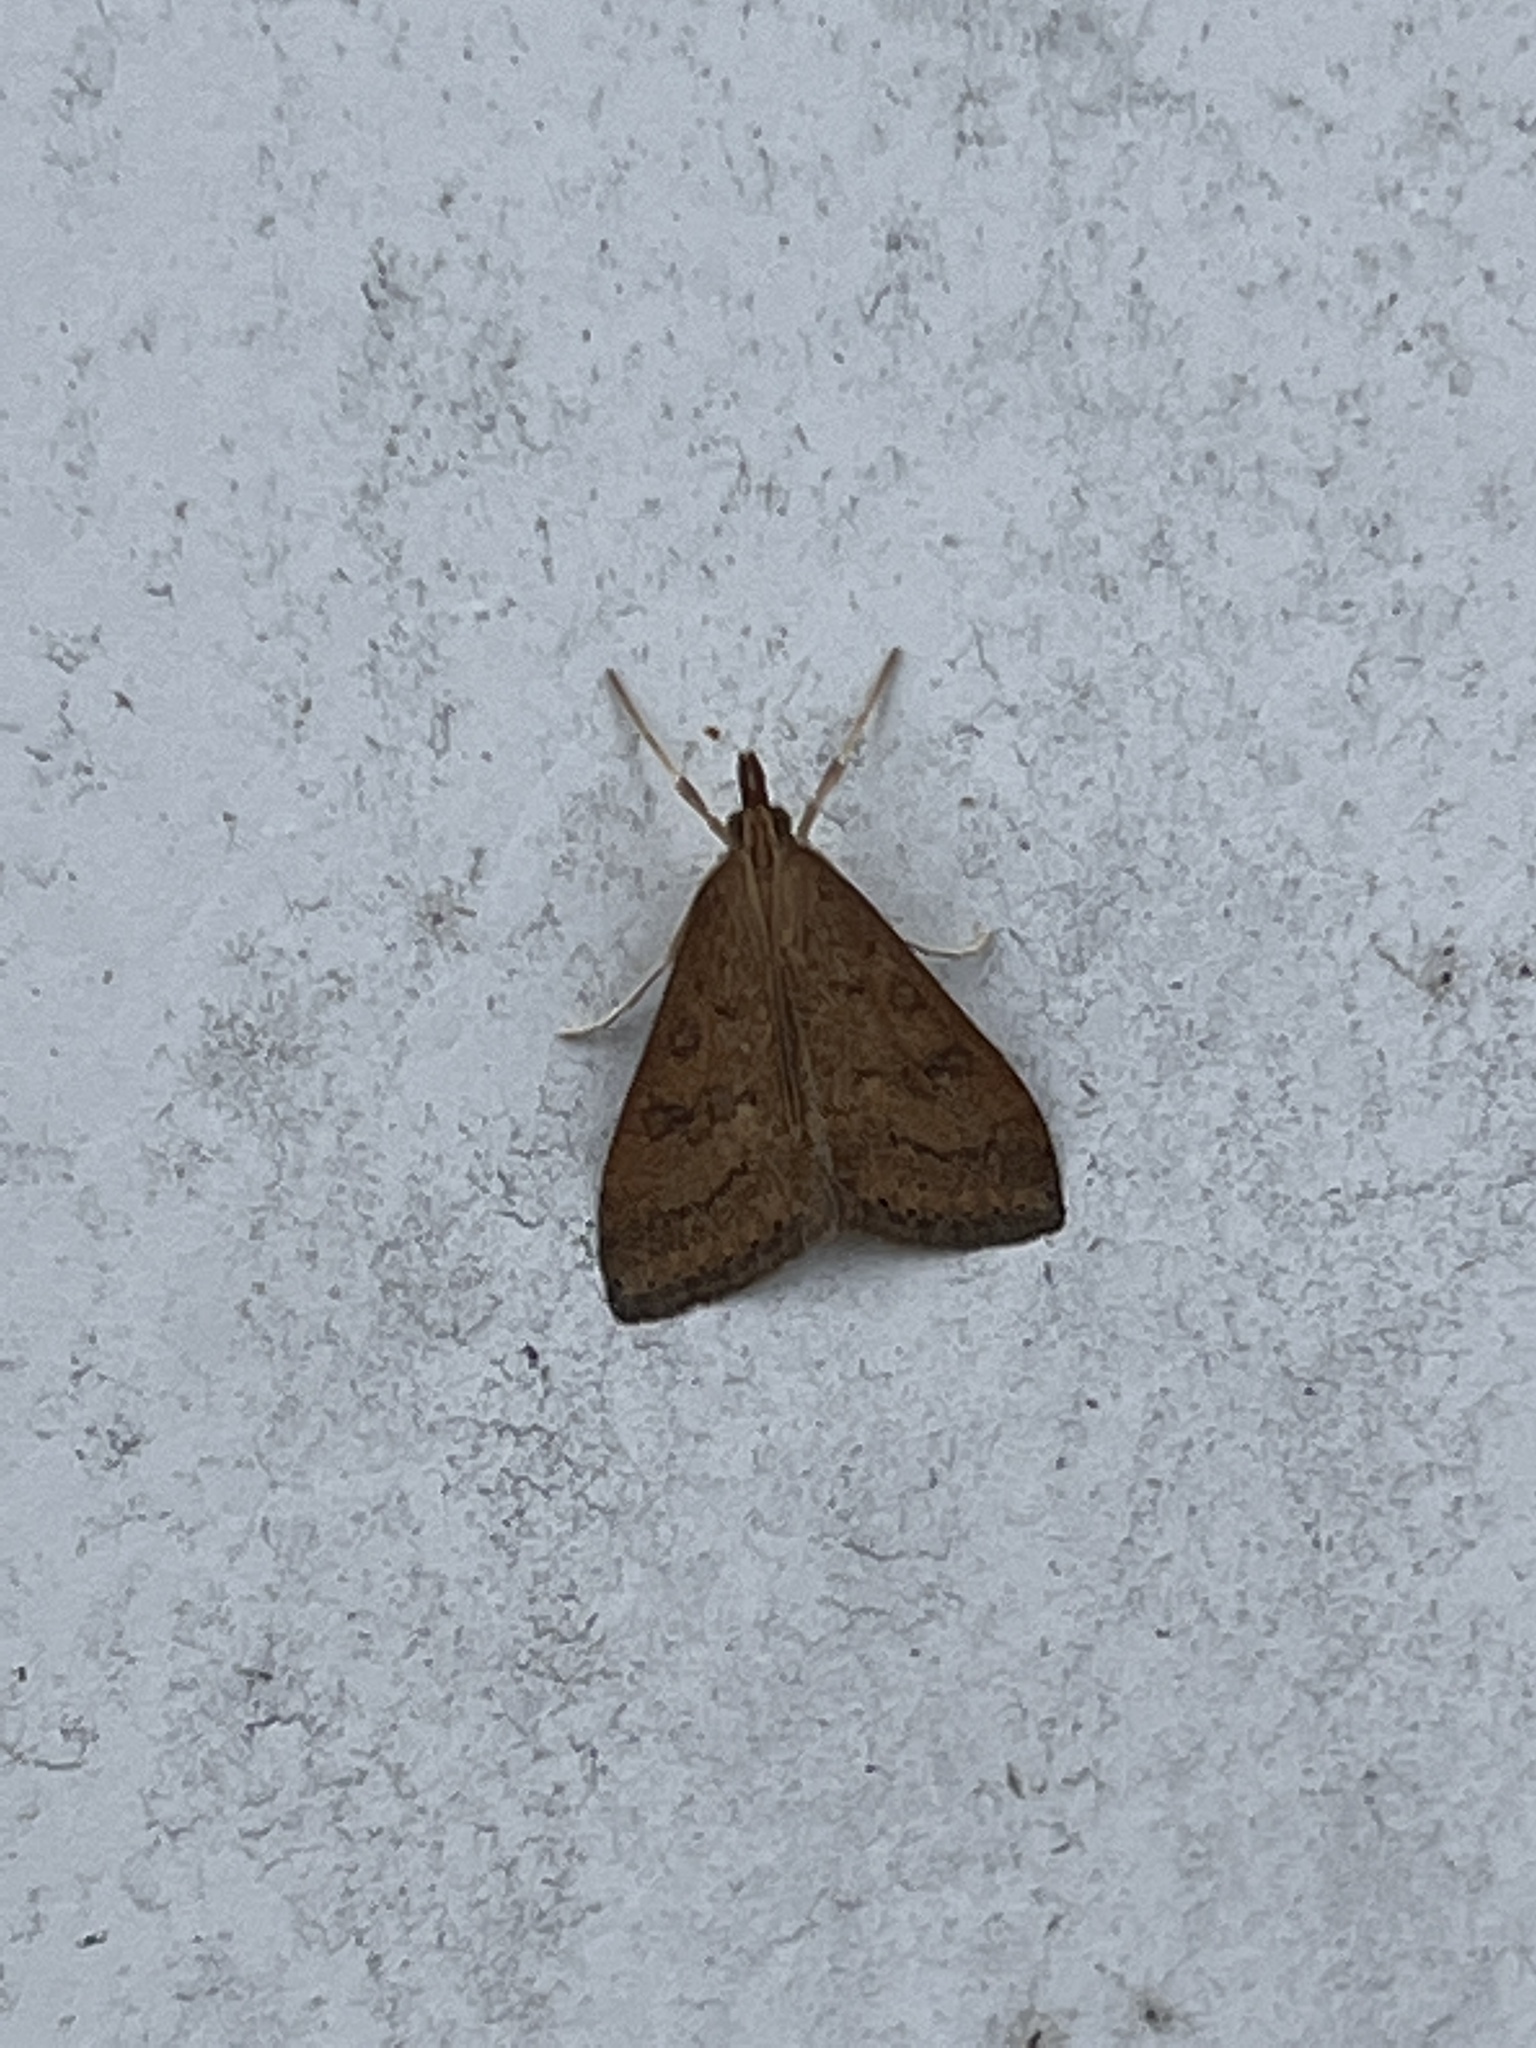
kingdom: Animalia
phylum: Arthropoda
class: Insecta
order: Lepidoptera
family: Crambidae
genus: Udea
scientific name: Udea rubigalis
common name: Celery leaftier moth
